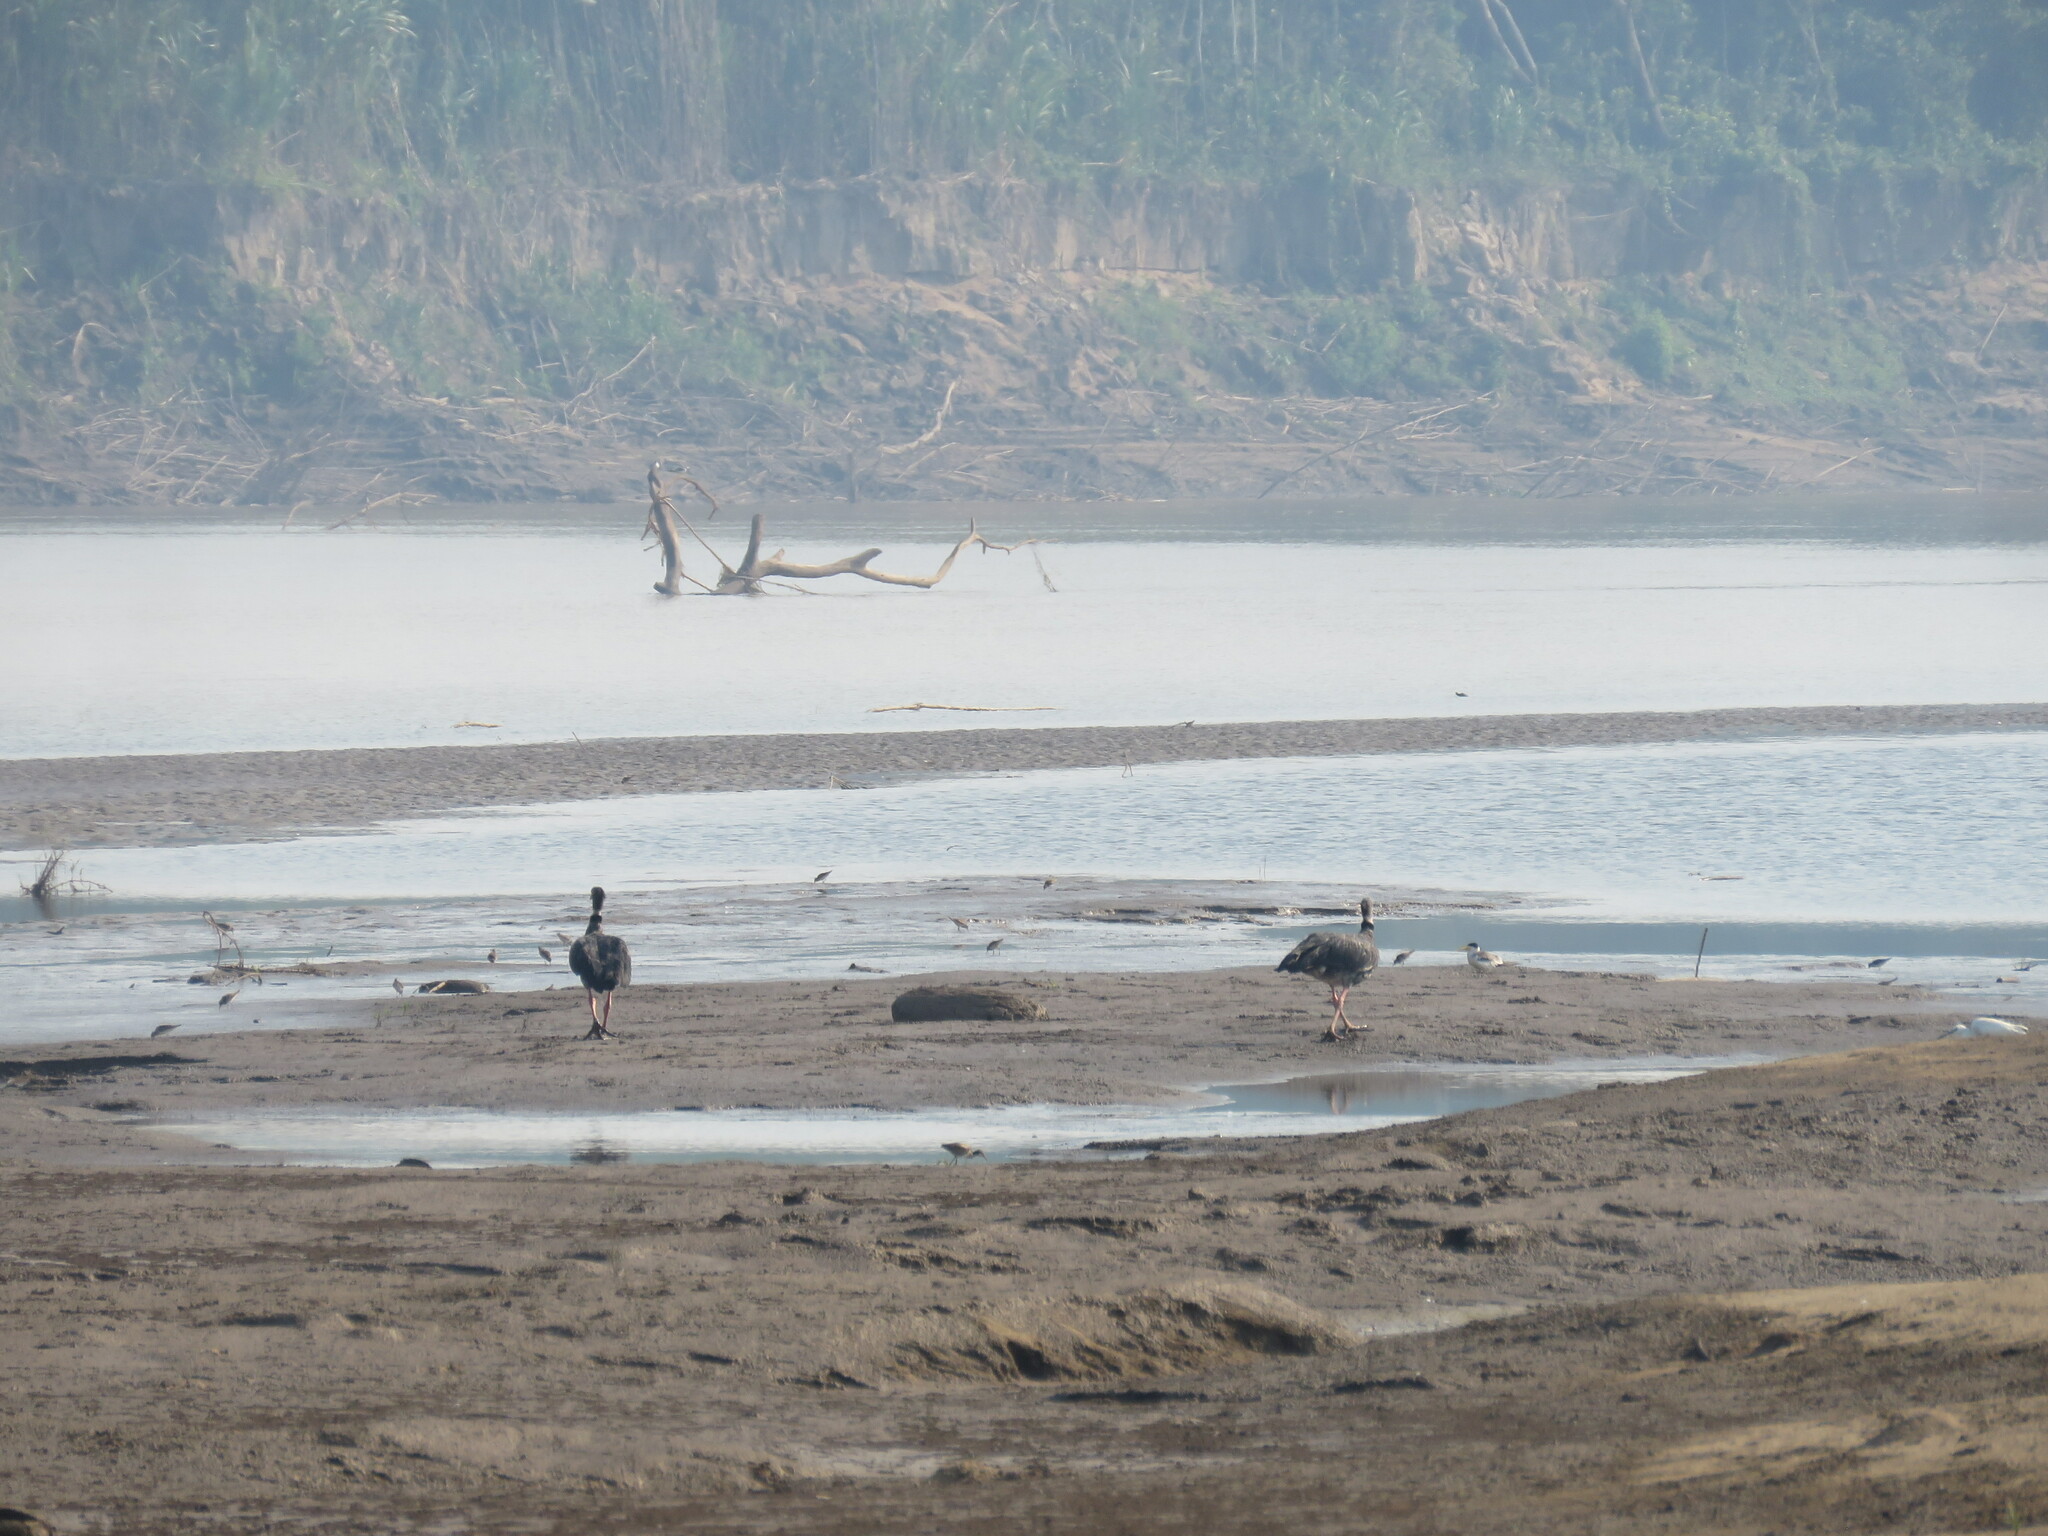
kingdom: Animalia
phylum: Chordata
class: Aves
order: Anseriformes
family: Anhimidae
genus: Chauna
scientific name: Chauna torquata
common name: Southern screamer
